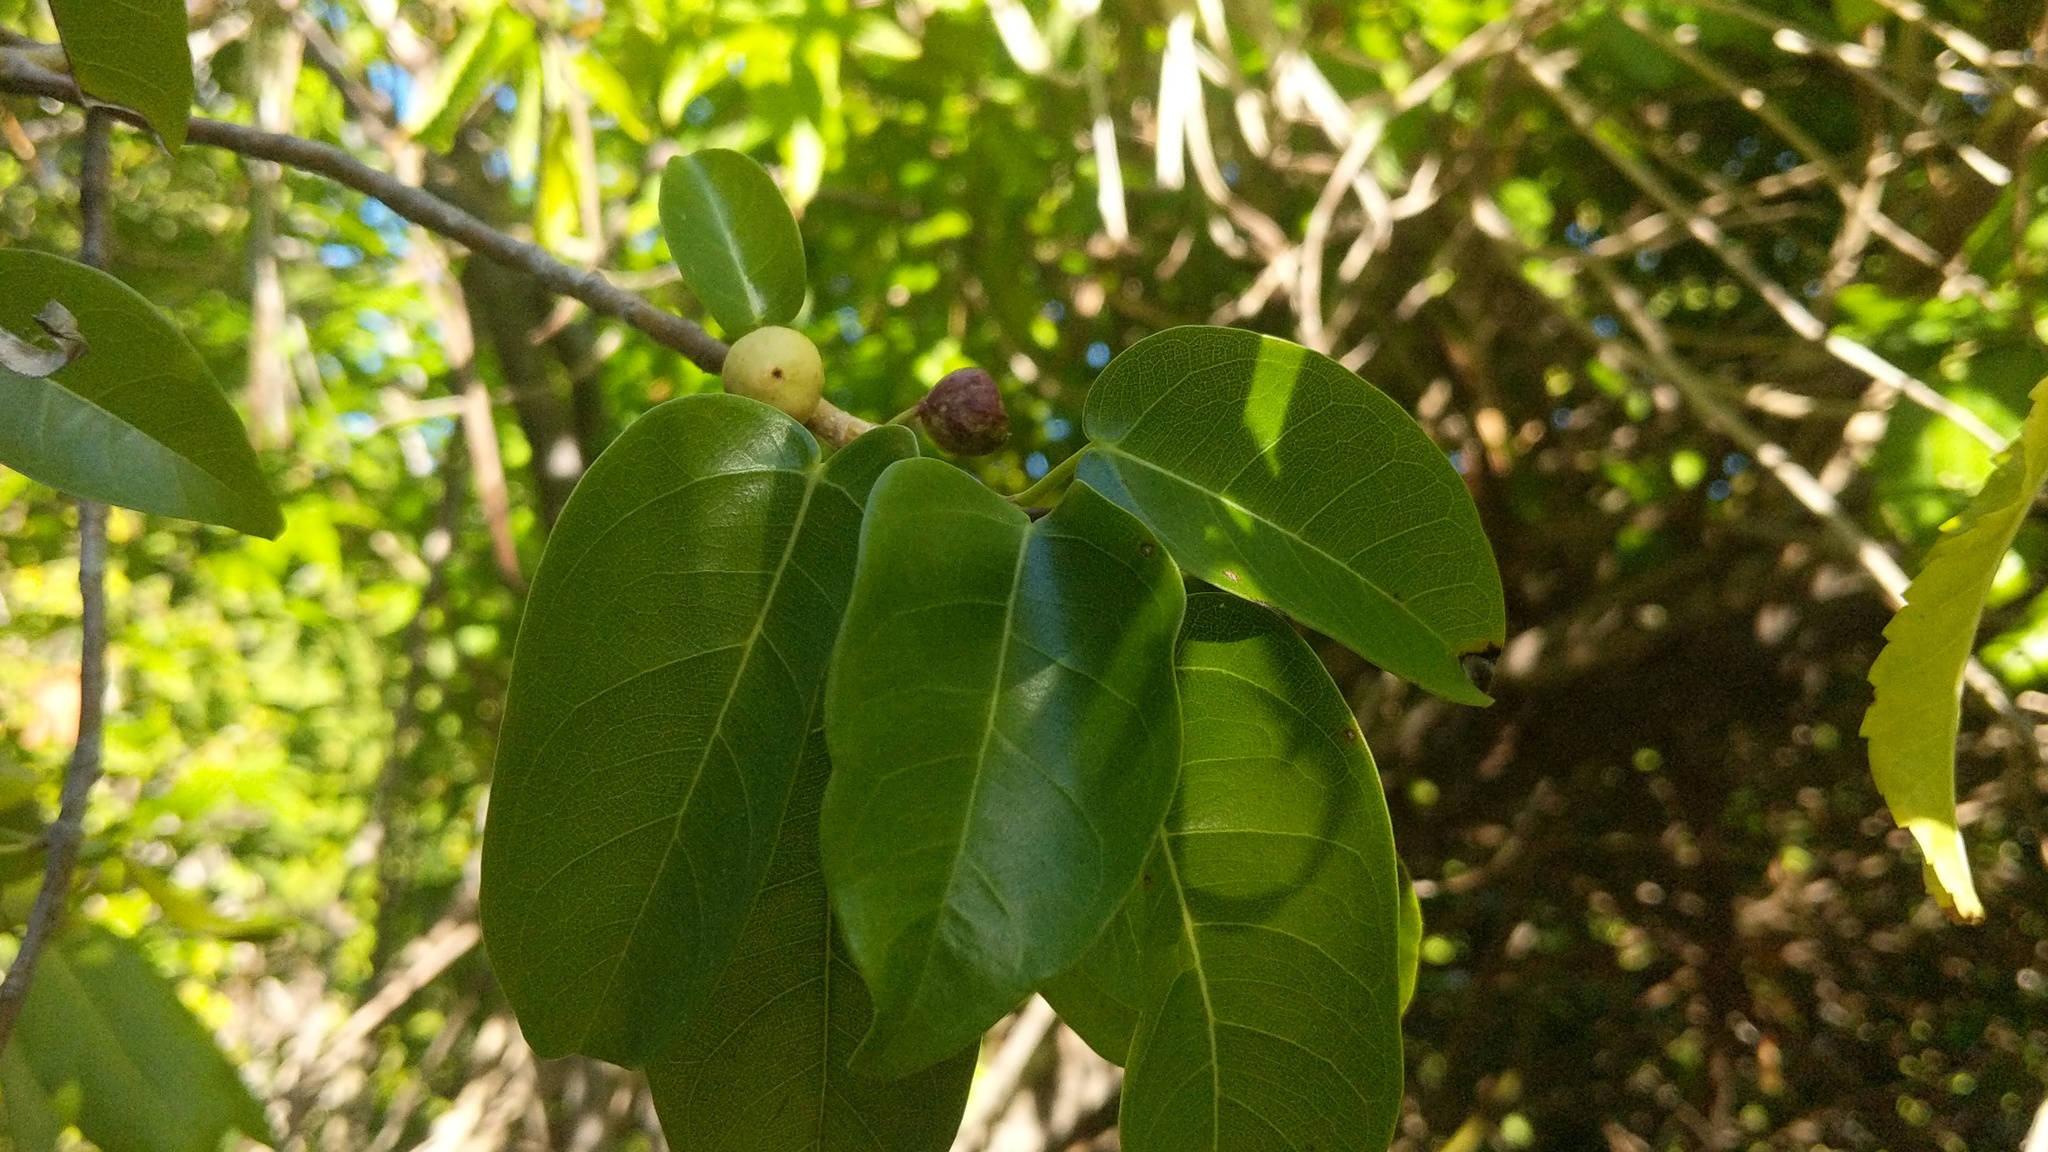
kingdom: Plantae
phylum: Tracheophyta
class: Magnoliopsida
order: Rosales
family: Moraceae
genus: Ficus
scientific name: Ficus citrifolia
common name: Strangler fig
